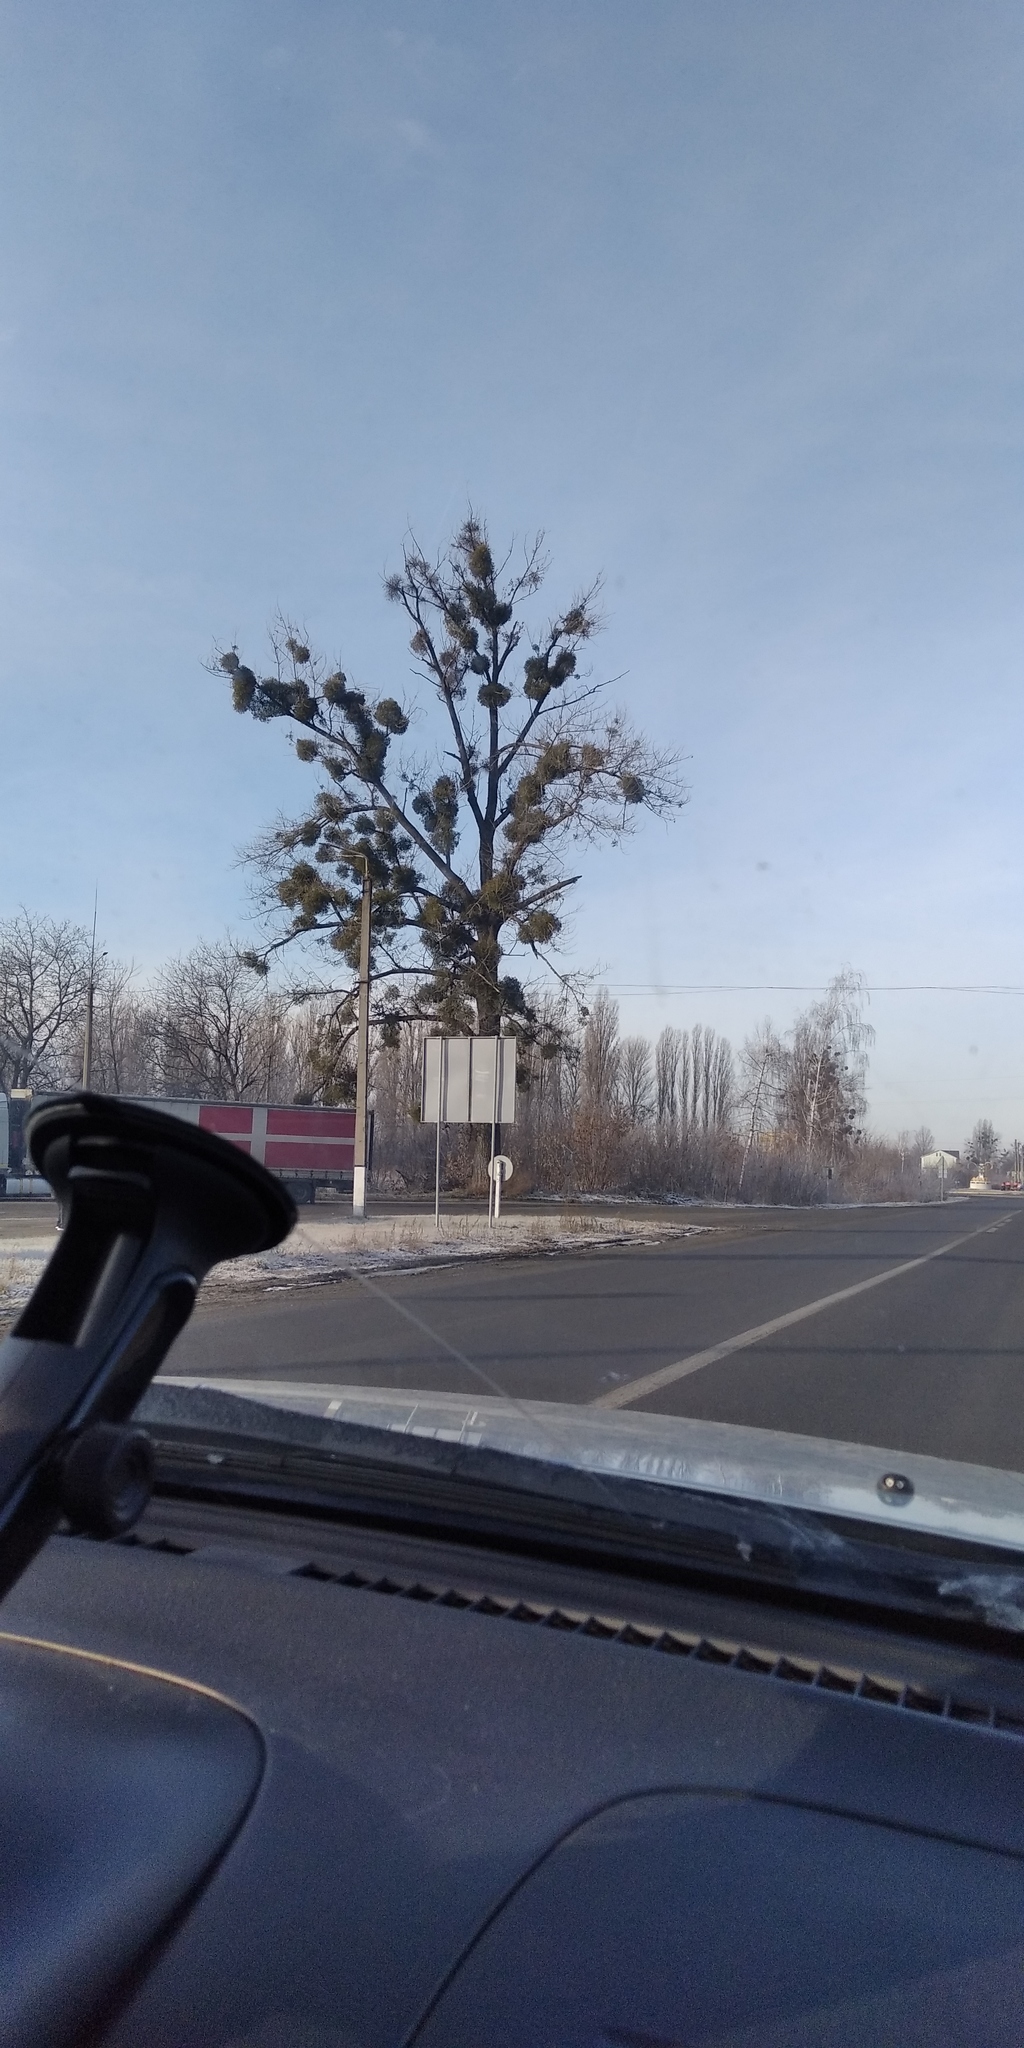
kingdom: Plantae
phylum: Tracheophyta
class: Magnoliopsida
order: Santalales
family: Viscaceae
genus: Viscum
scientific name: Viscum album
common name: Mistletoe
